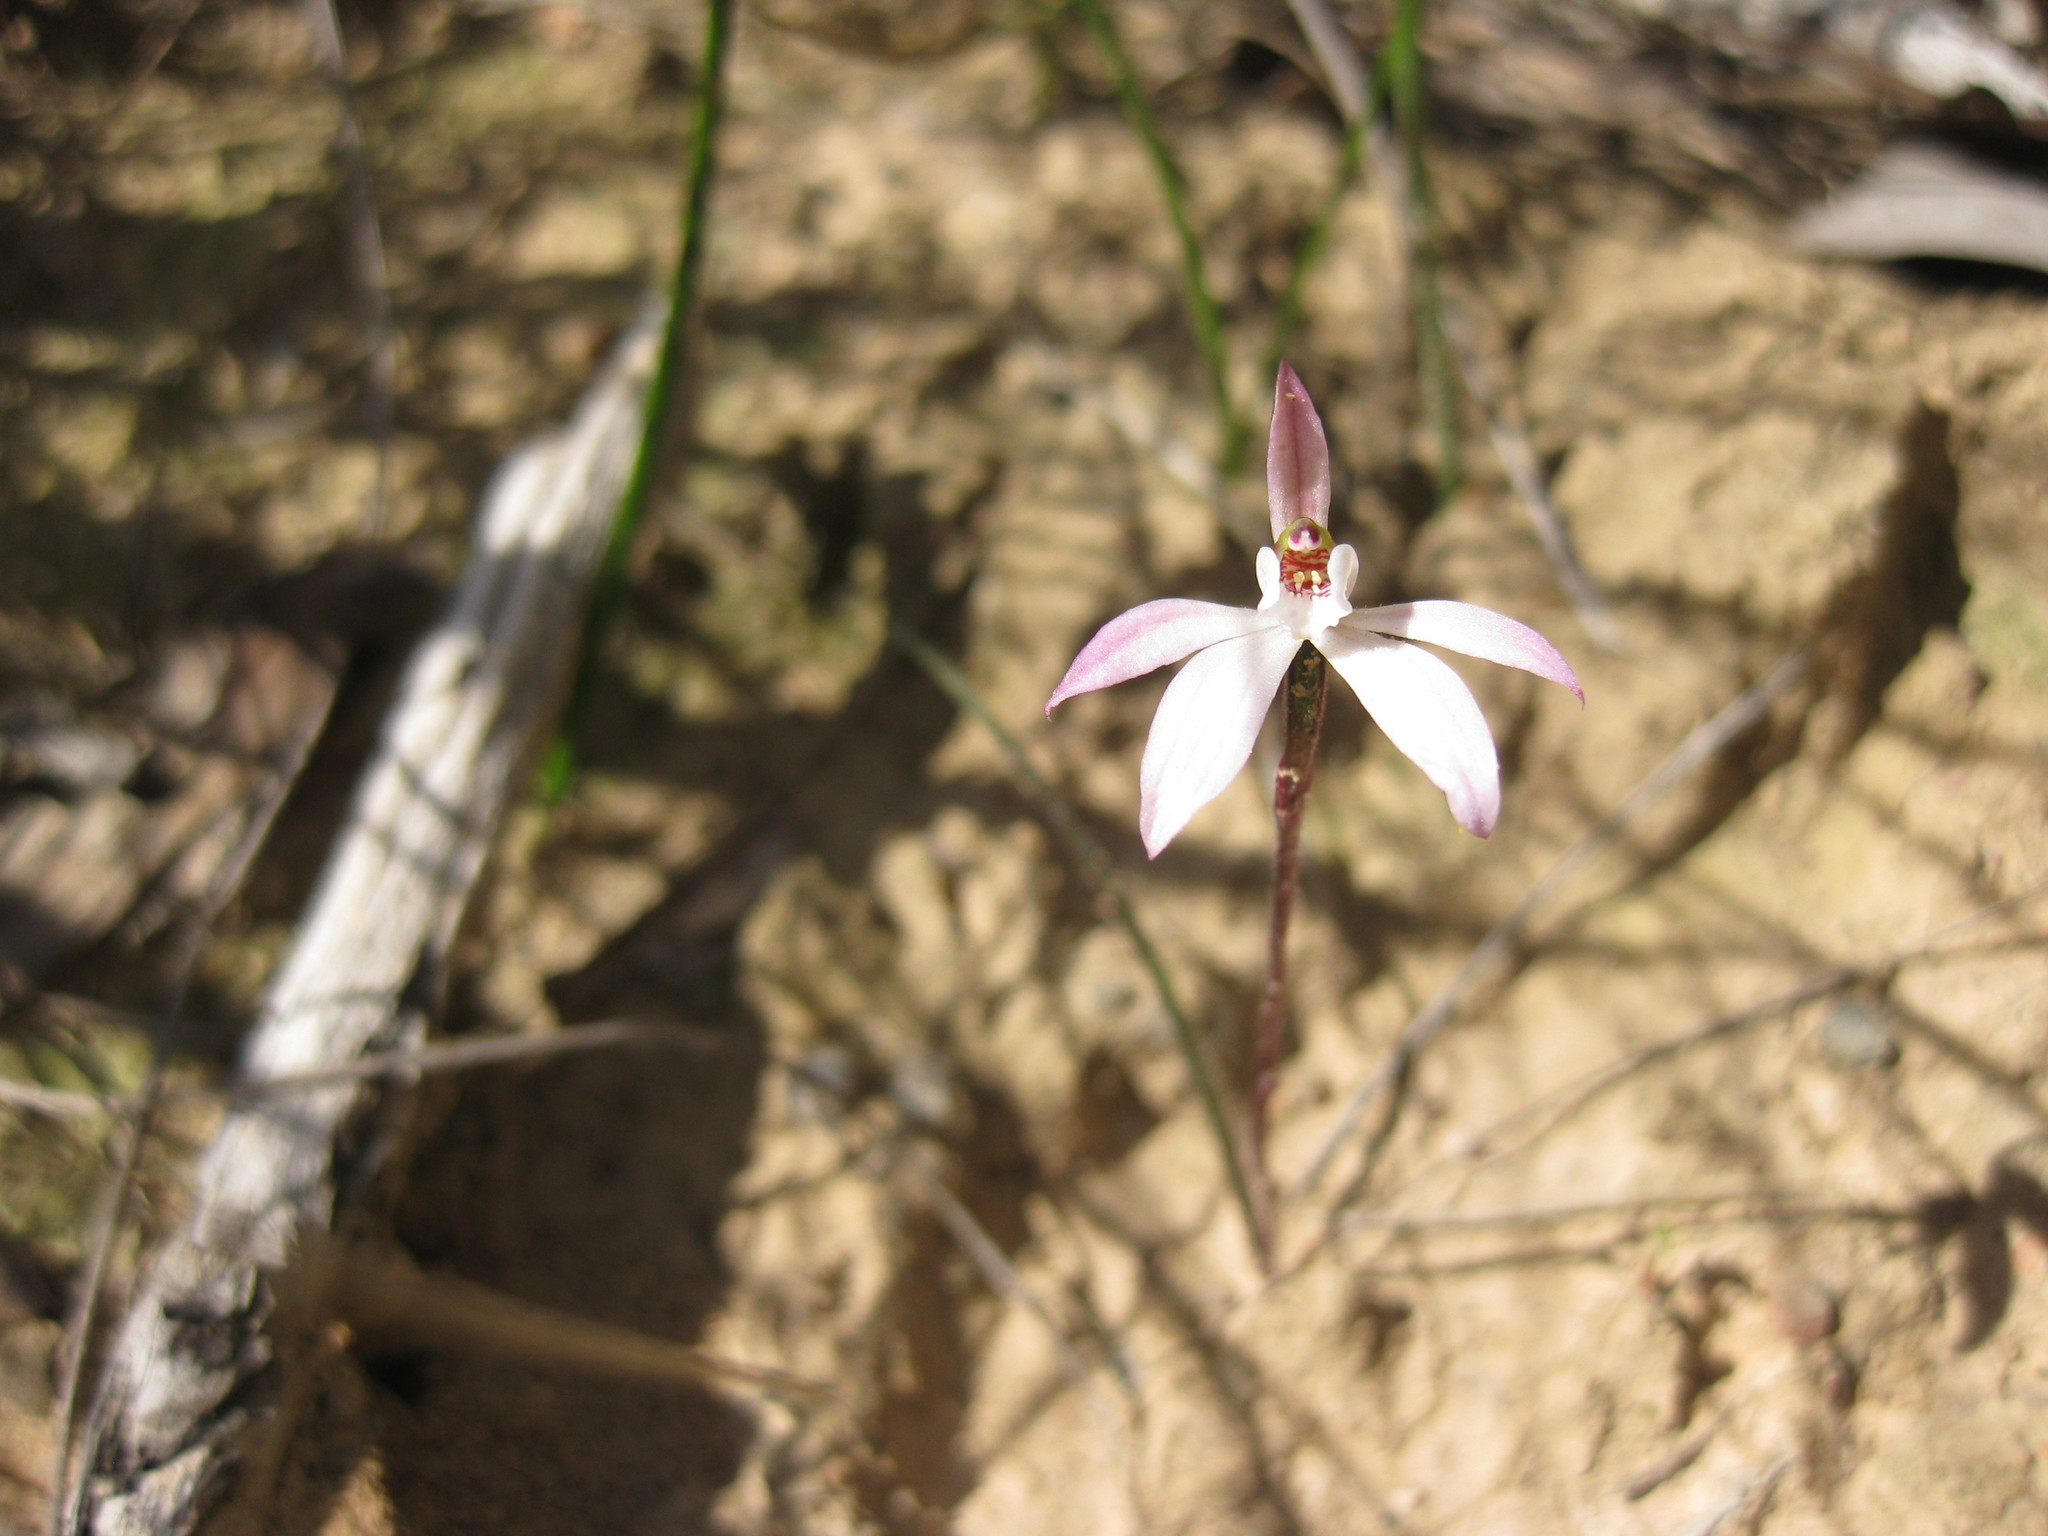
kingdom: Plantae
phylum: Tracheophyta
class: Liliopsida
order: Asparagales
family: Orchidaceae
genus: Caladenia
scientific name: Caladenia fuscata
